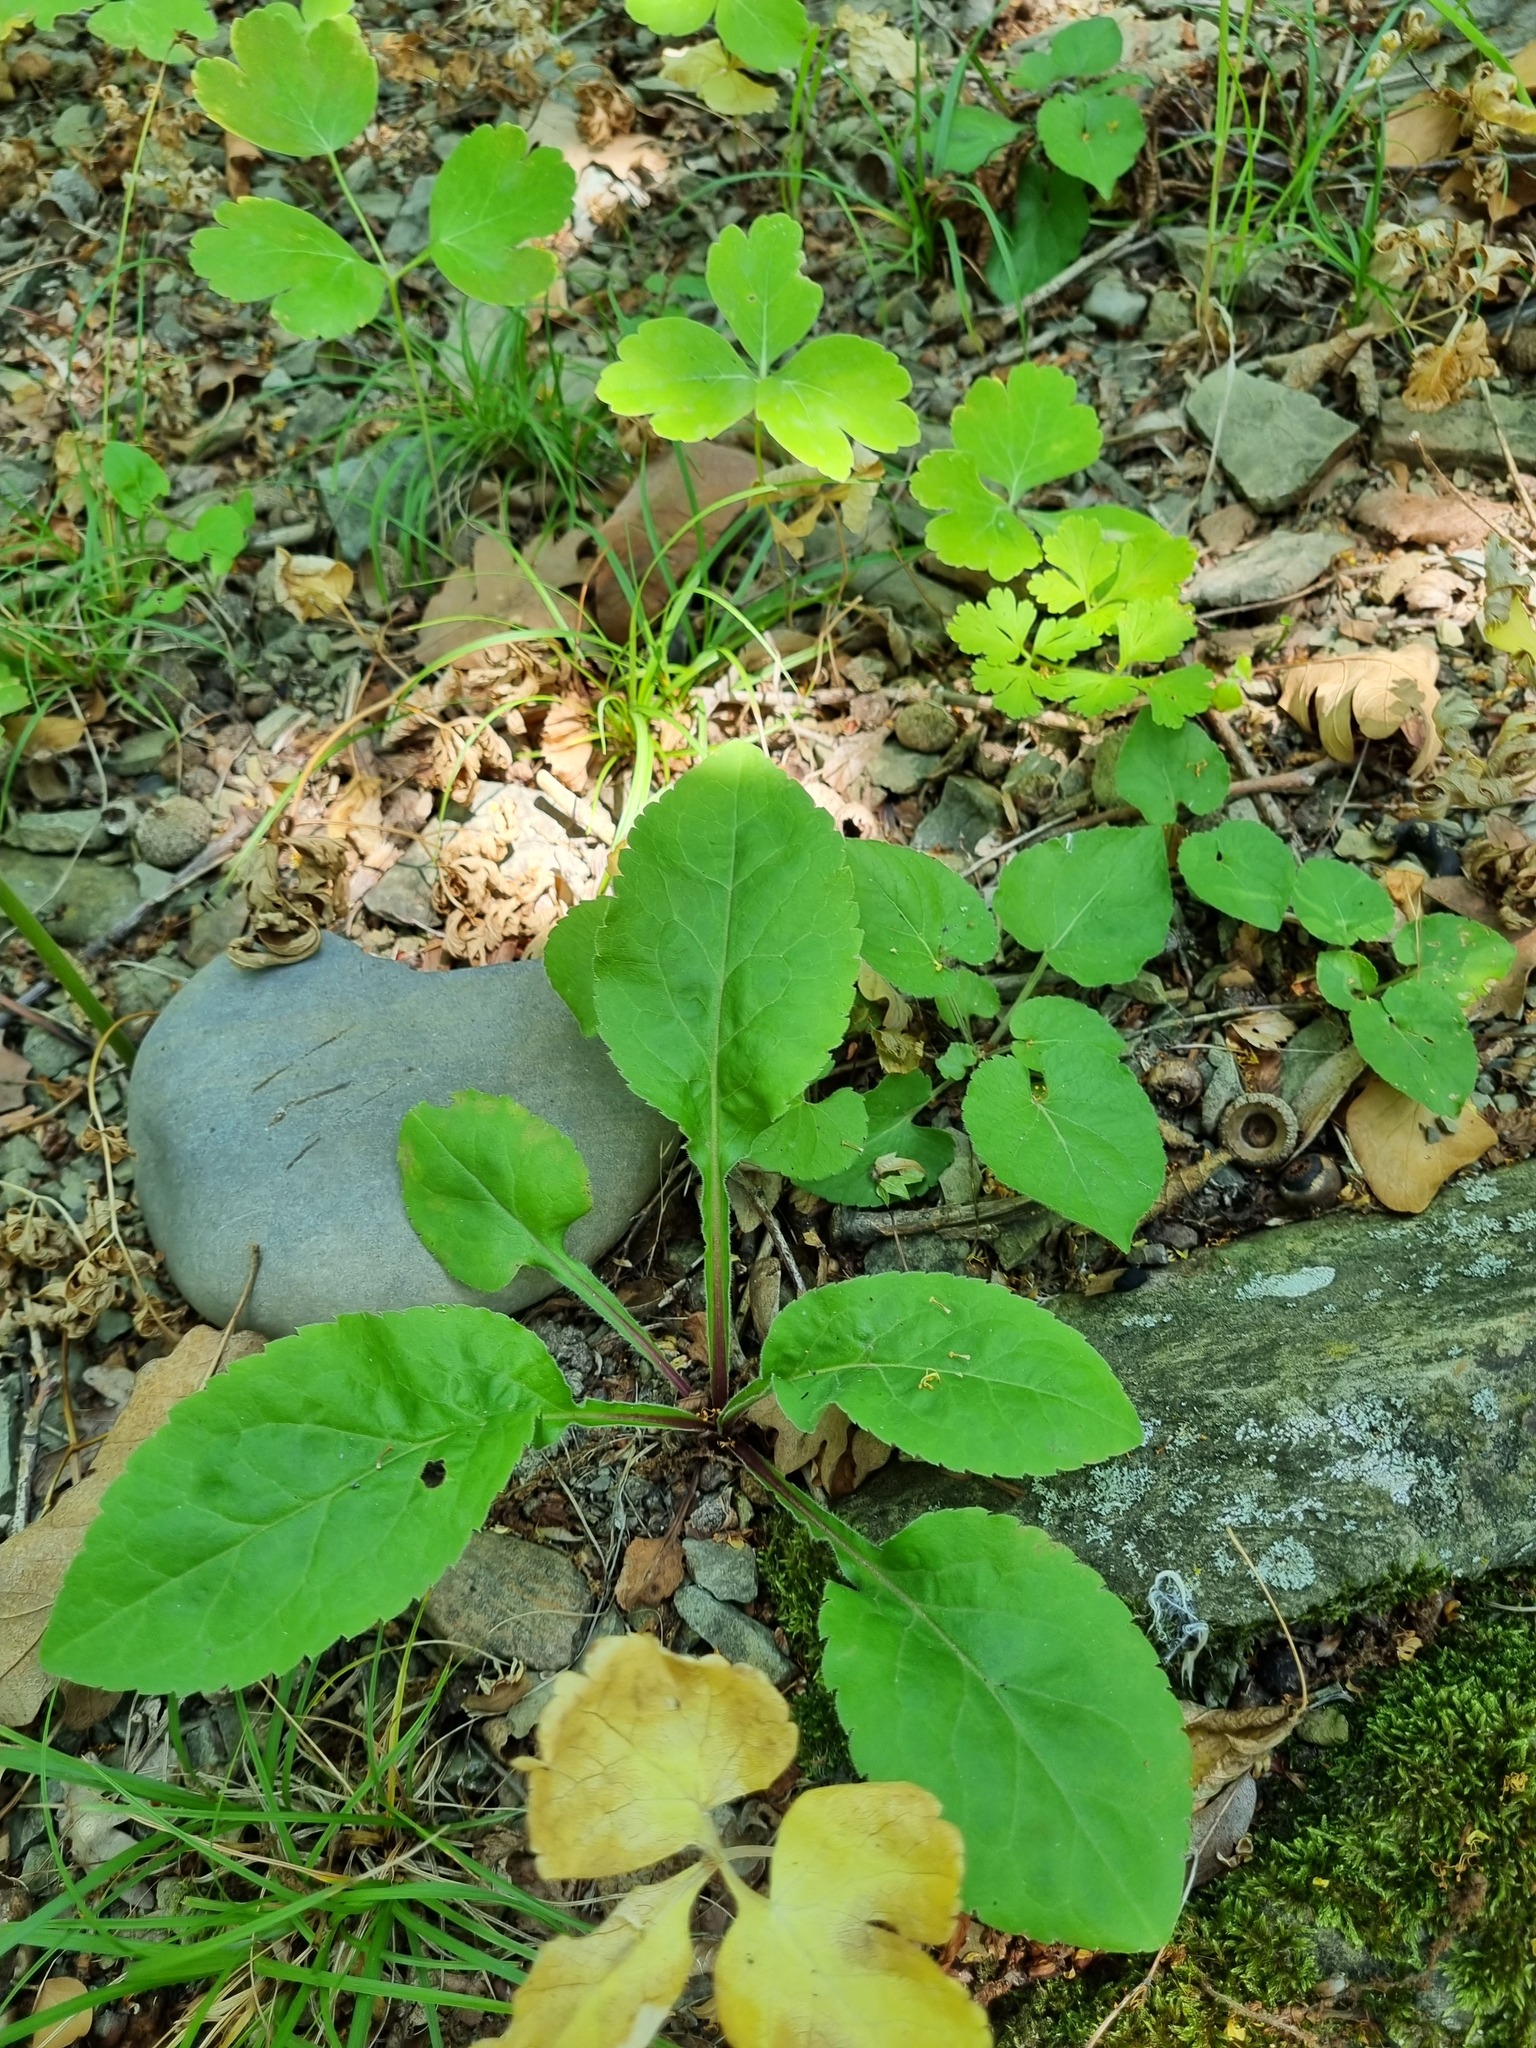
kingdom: Plantae
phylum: Tracheophyta
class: Magnoliopsida
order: Asterales
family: Asteraceae
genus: Solidago
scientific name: Solidago virgaurea
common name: Goldenrod
